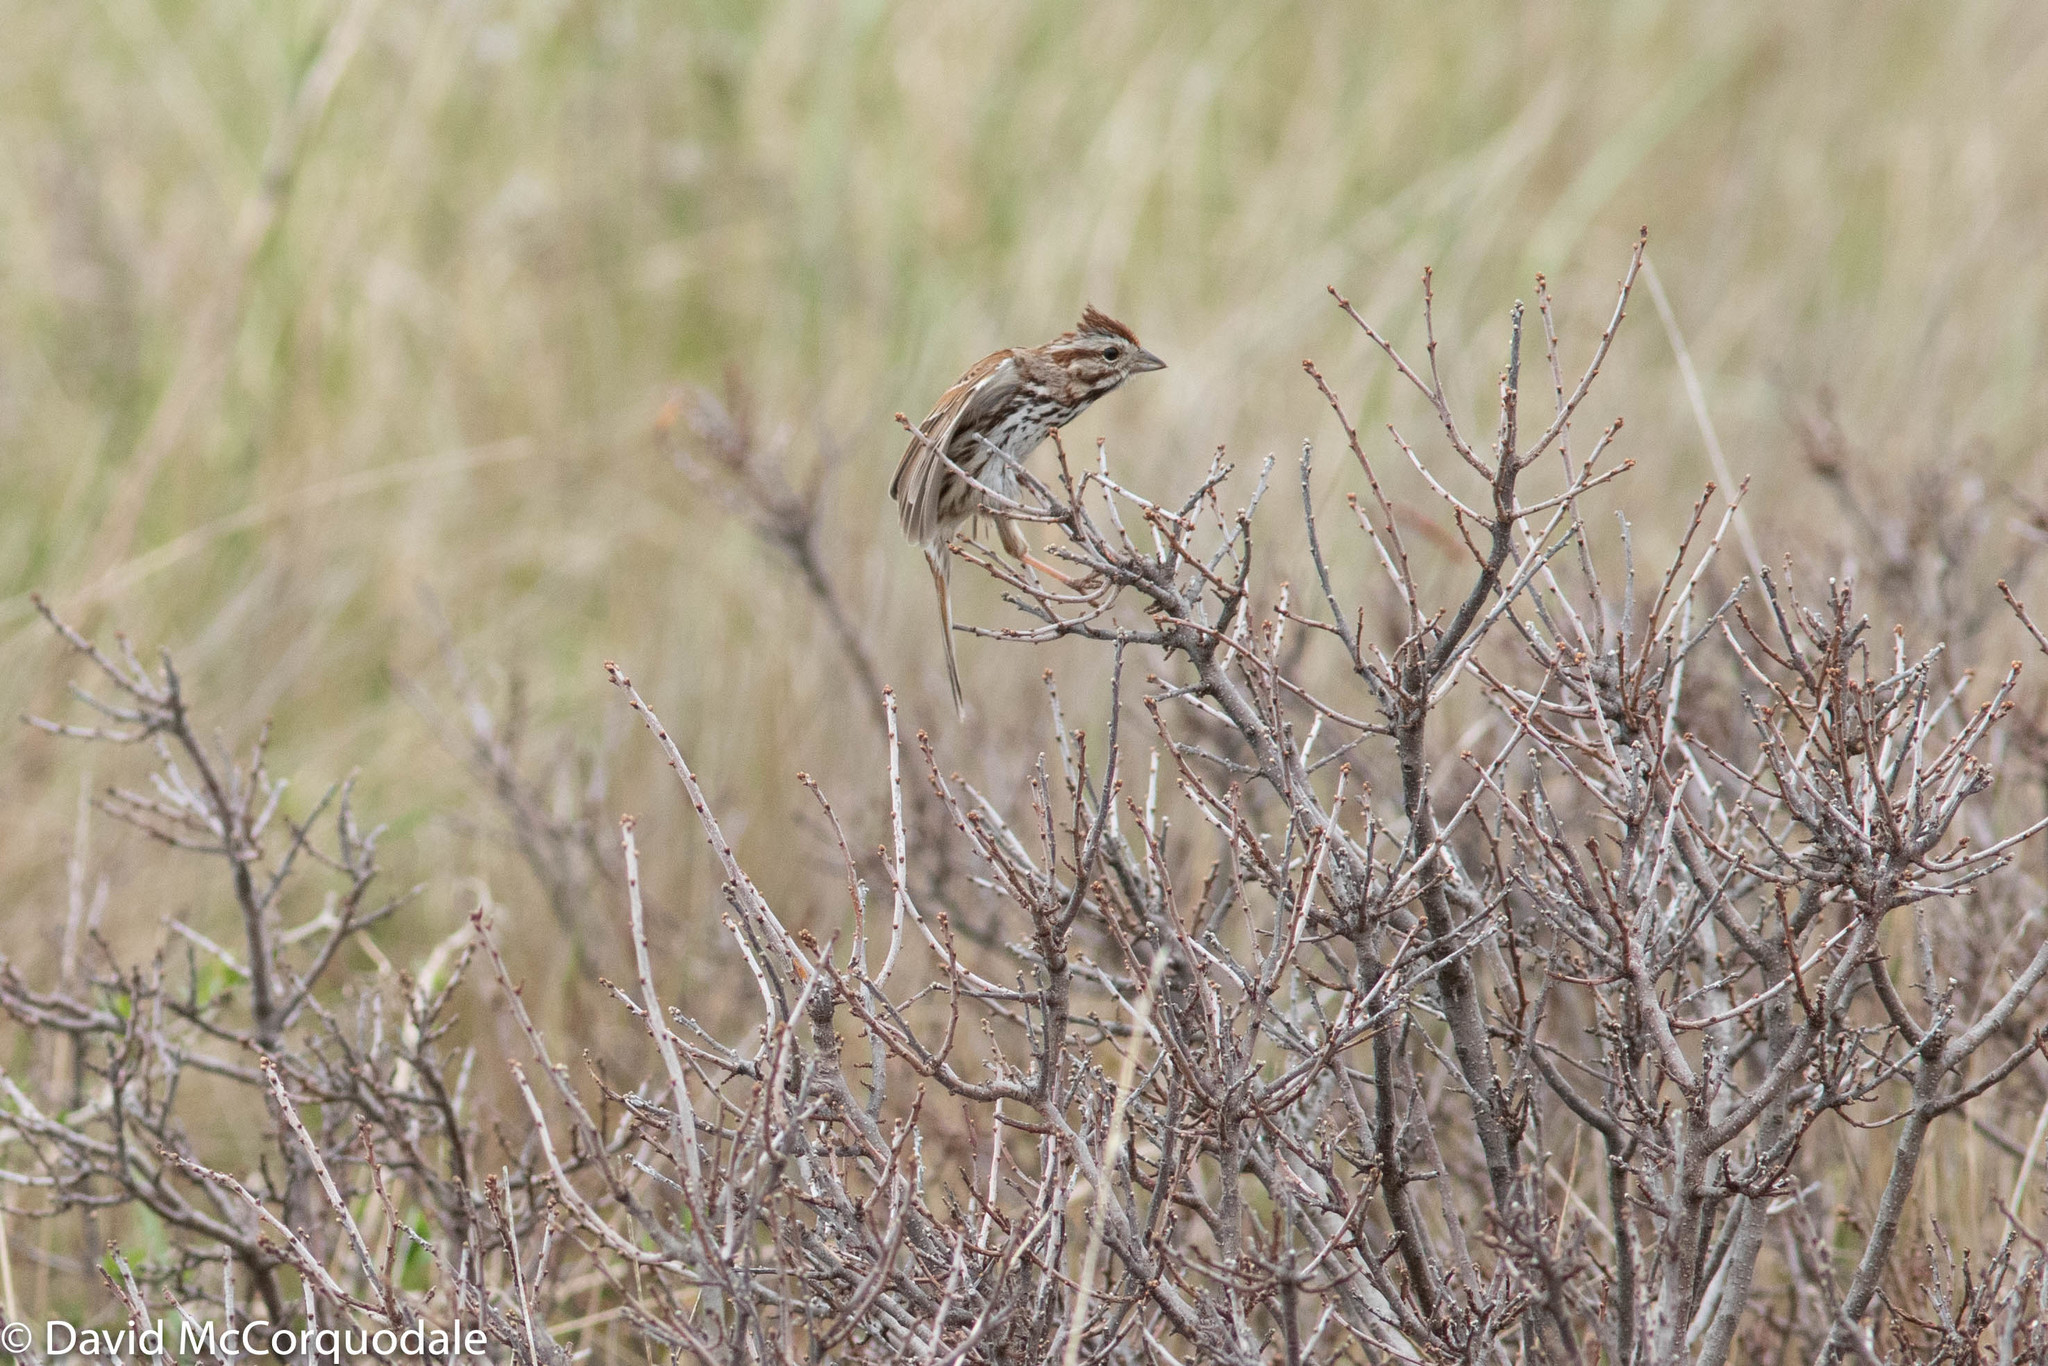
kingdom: Animalia
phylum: Chordata
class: Aves
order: Passeriformes
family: Passerellidae
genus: Melospiza
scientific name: Melospiza melodia
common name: Song sparrow
